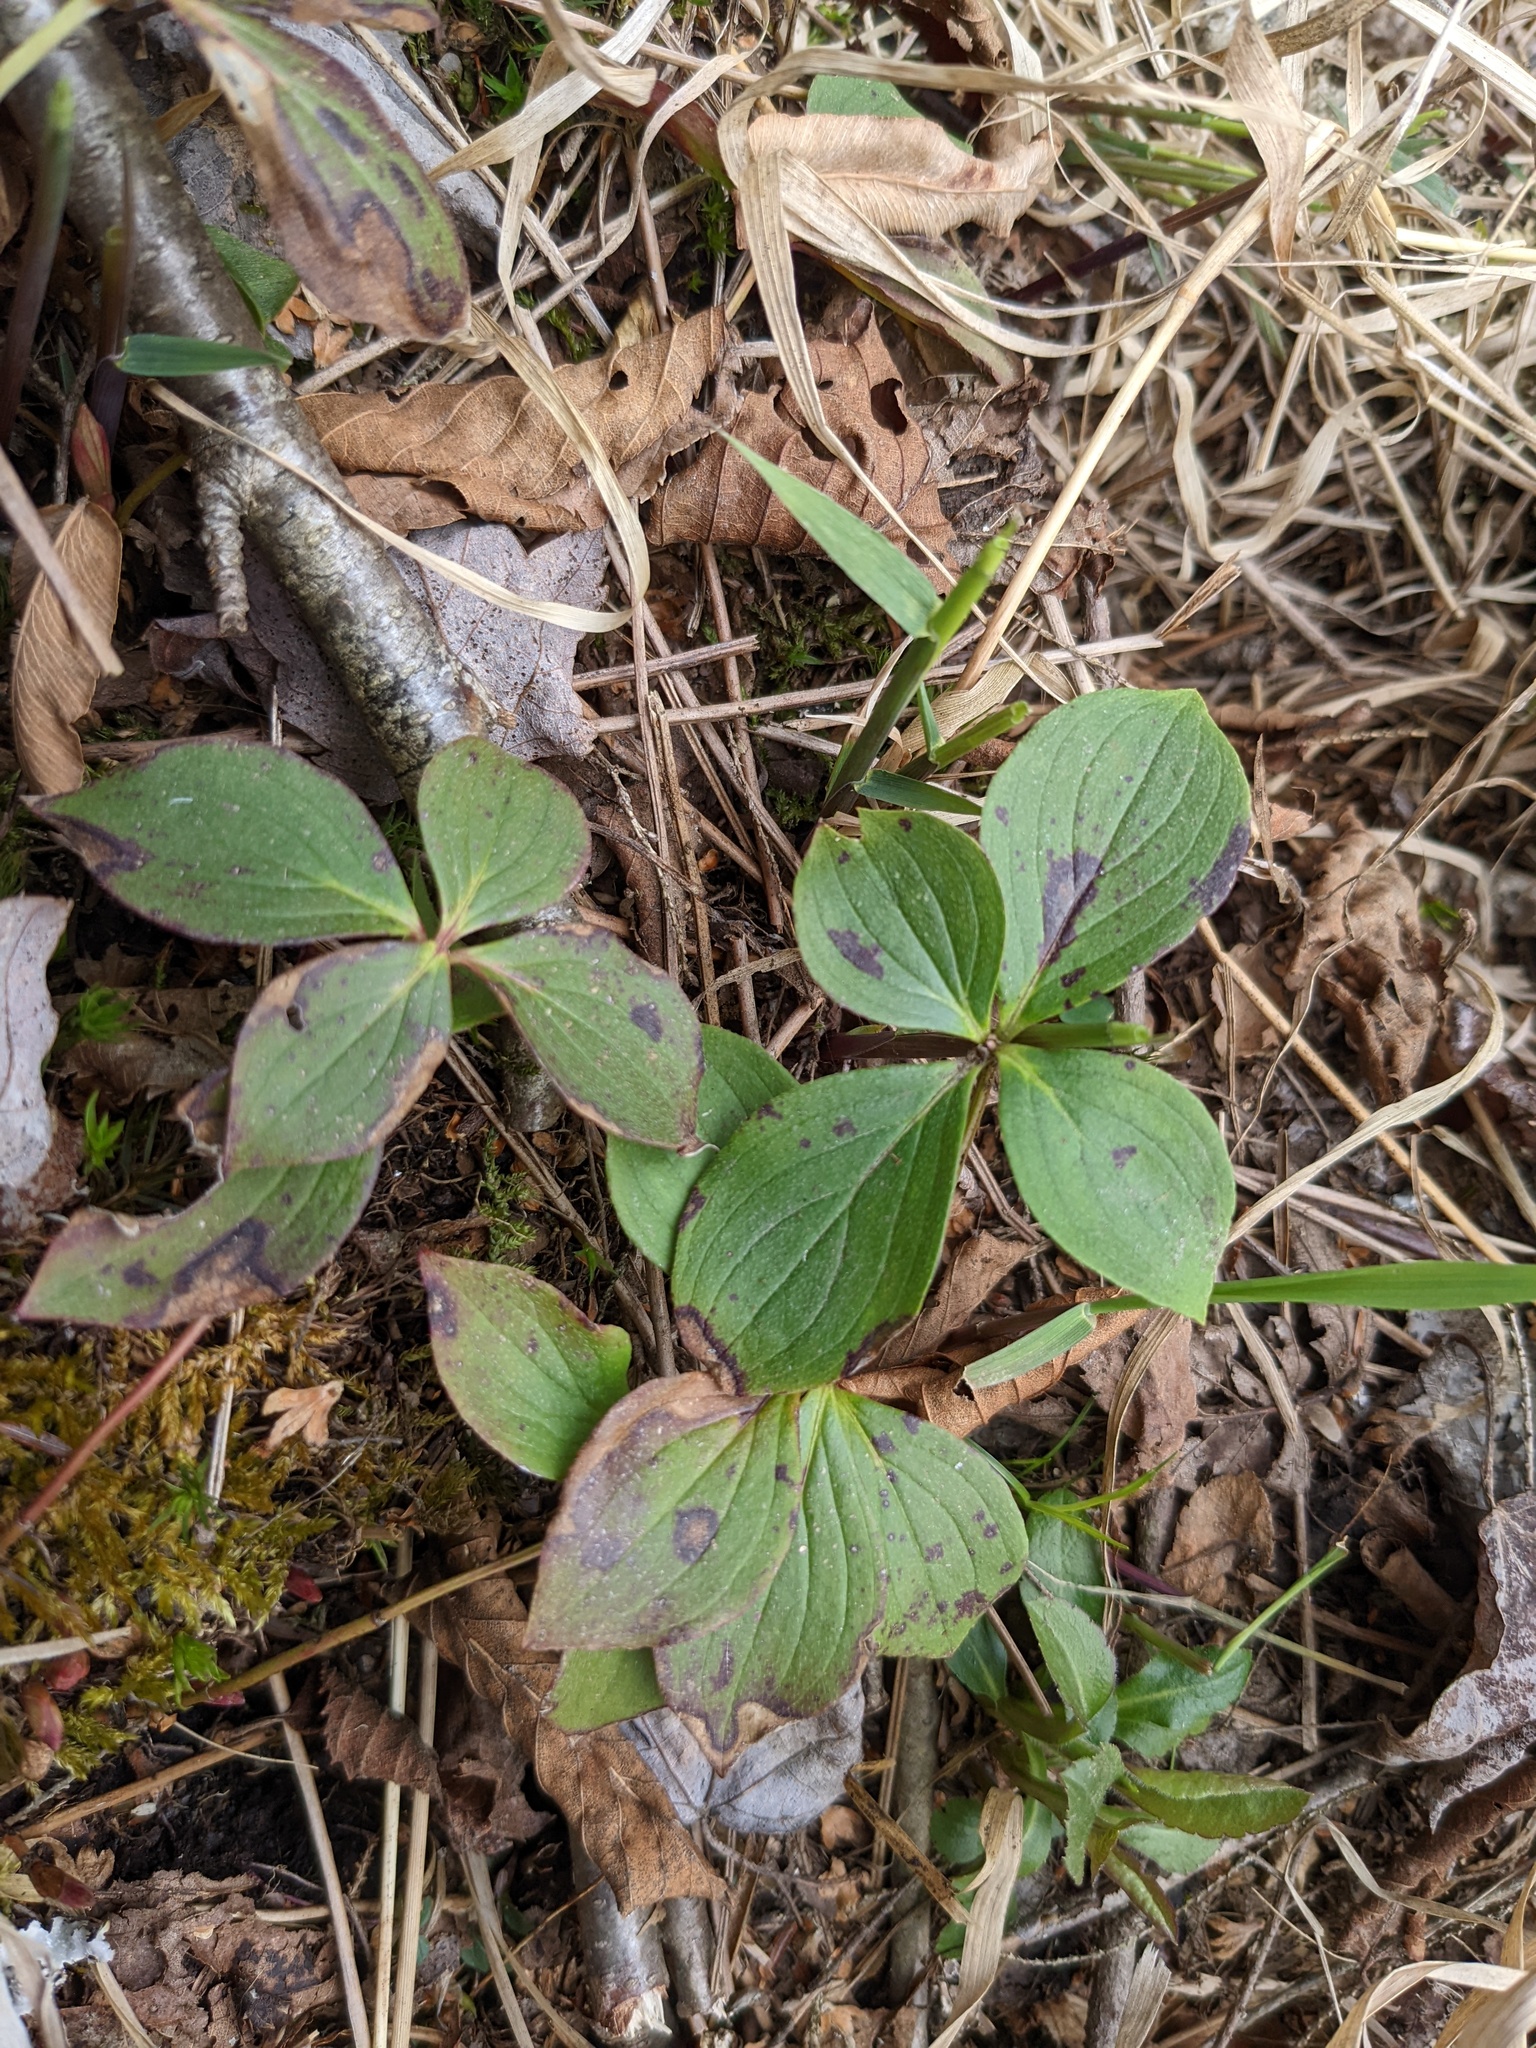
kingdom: Plantae
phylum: Tracheophyta
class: Magnoliopsida
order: Cornales
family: Cornaceae
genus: Cornus
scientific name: Cornus canadensis
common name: Creeping dogwood
